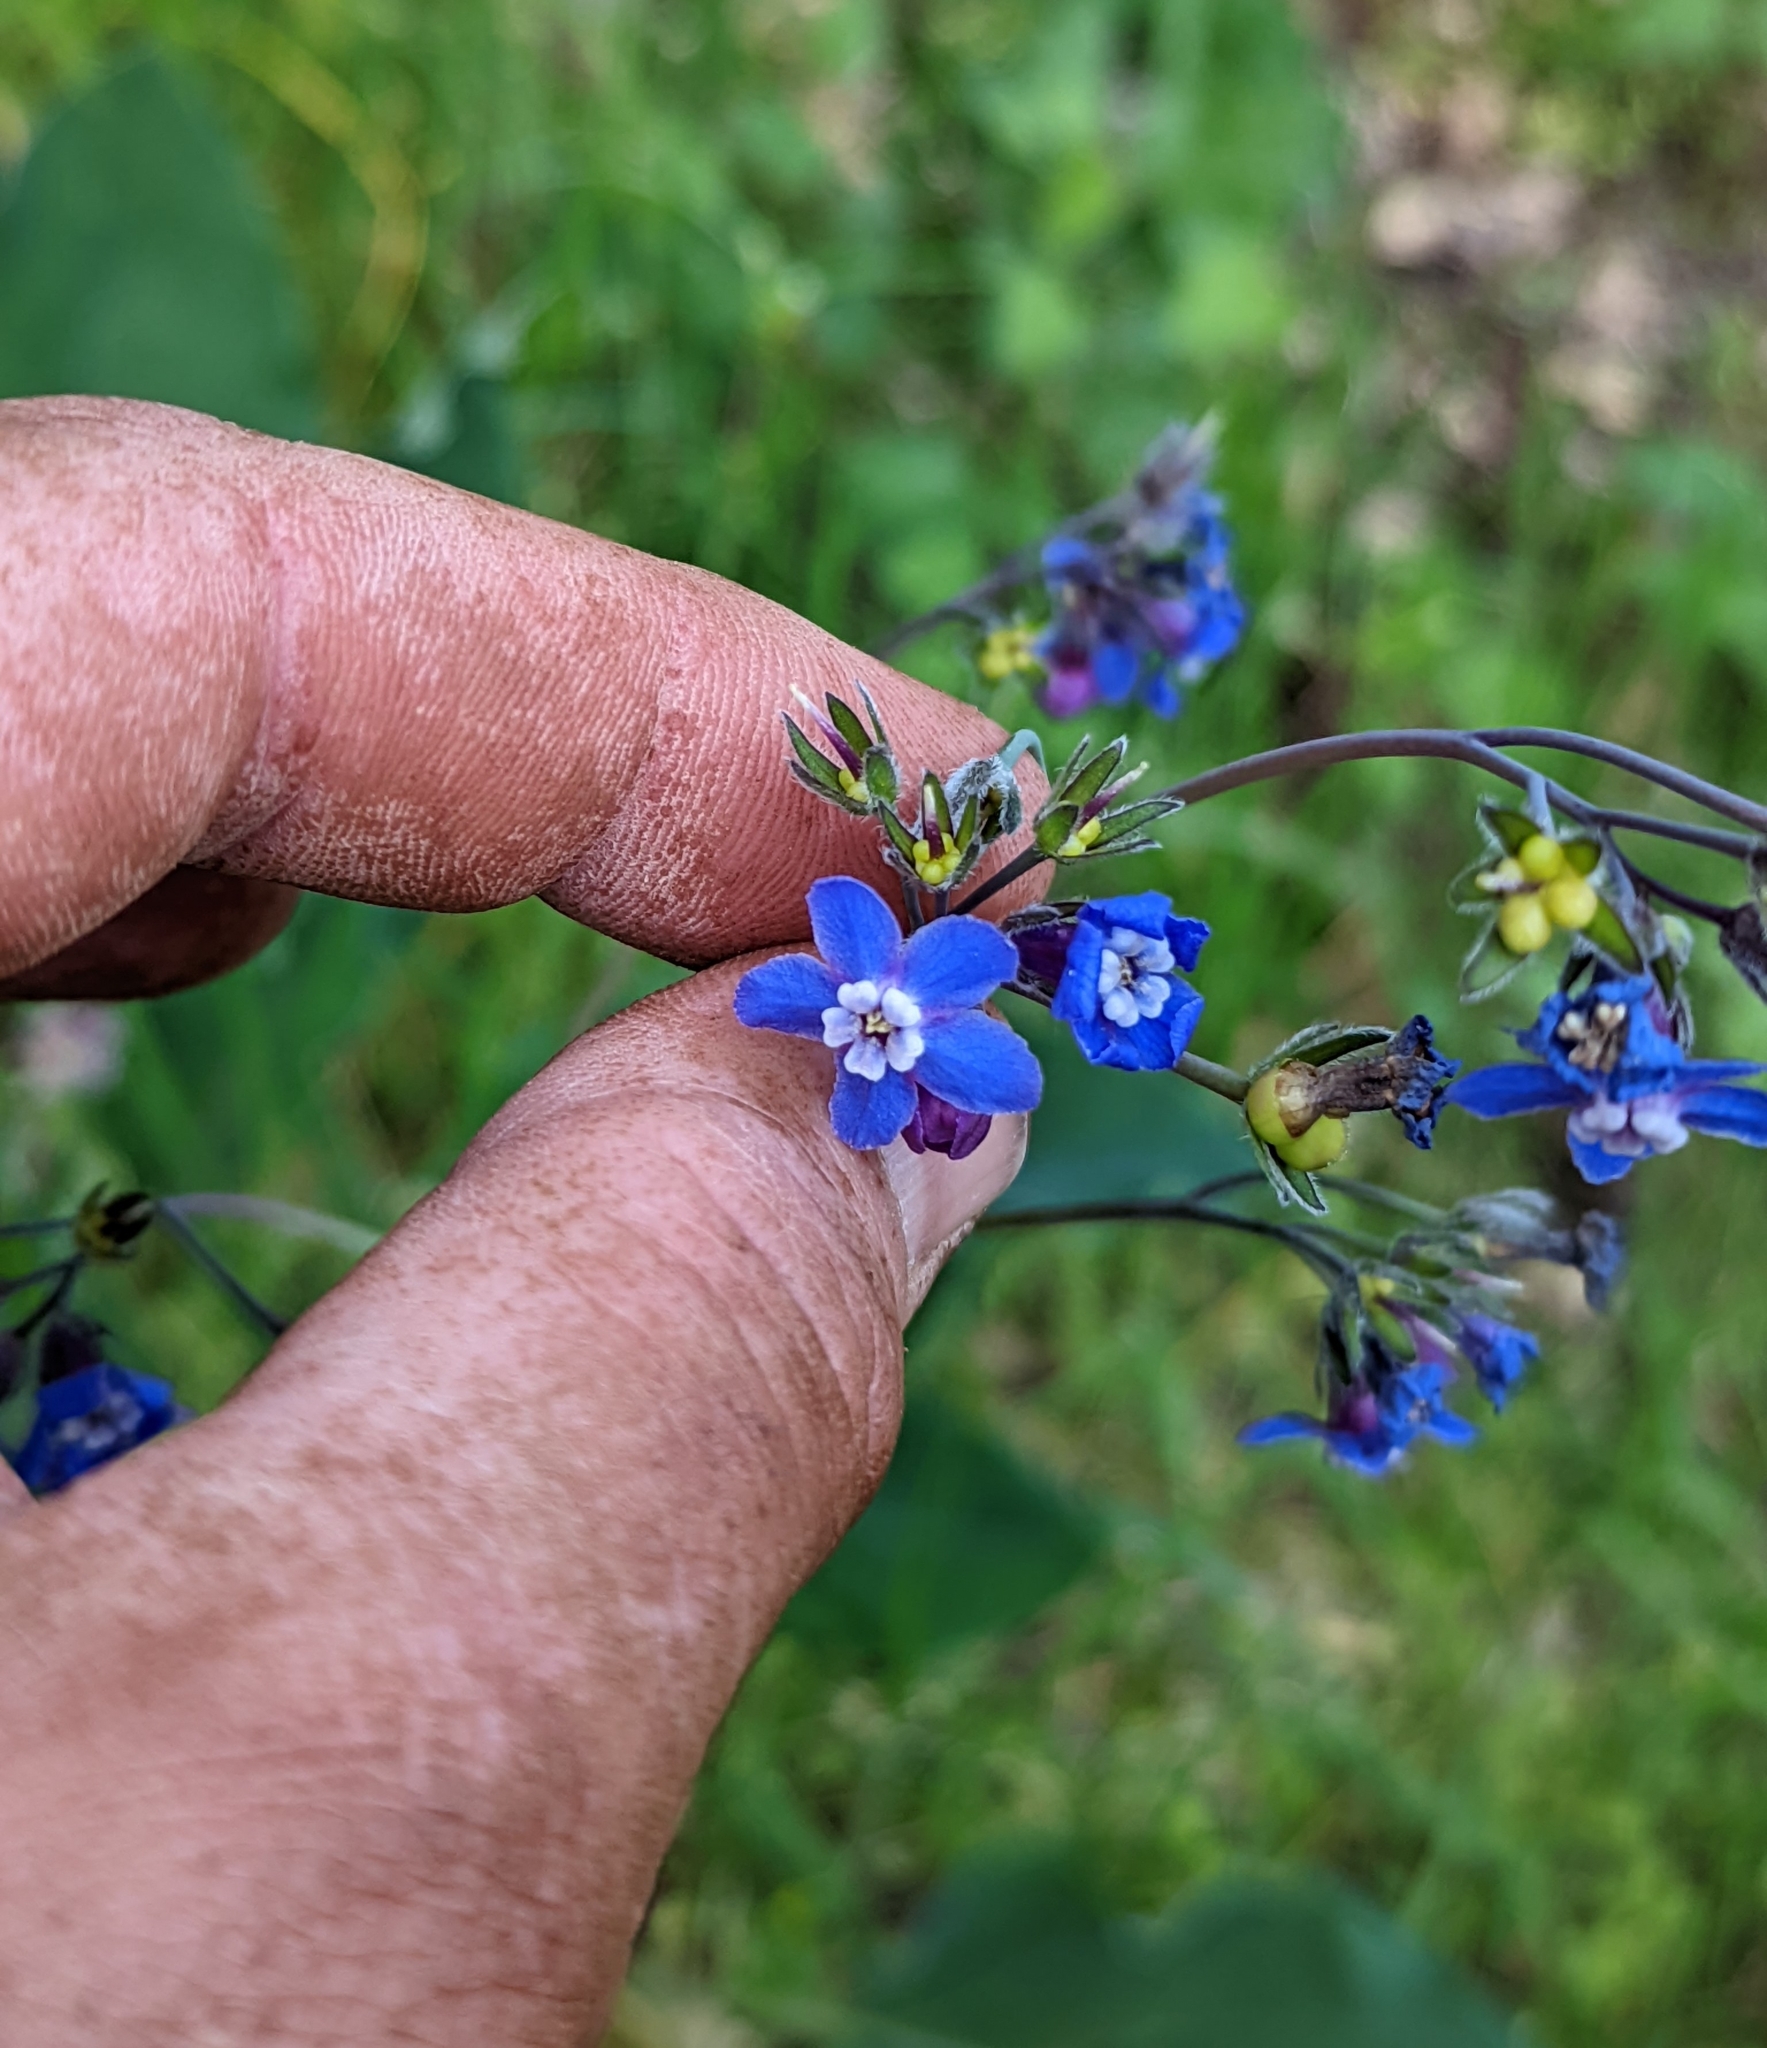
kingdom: Plantae
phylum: Tracheophyta
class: Magnoliopsida
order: Boraginales
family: Boraginaceae
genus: Adelinia
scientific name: Adelinia grande
